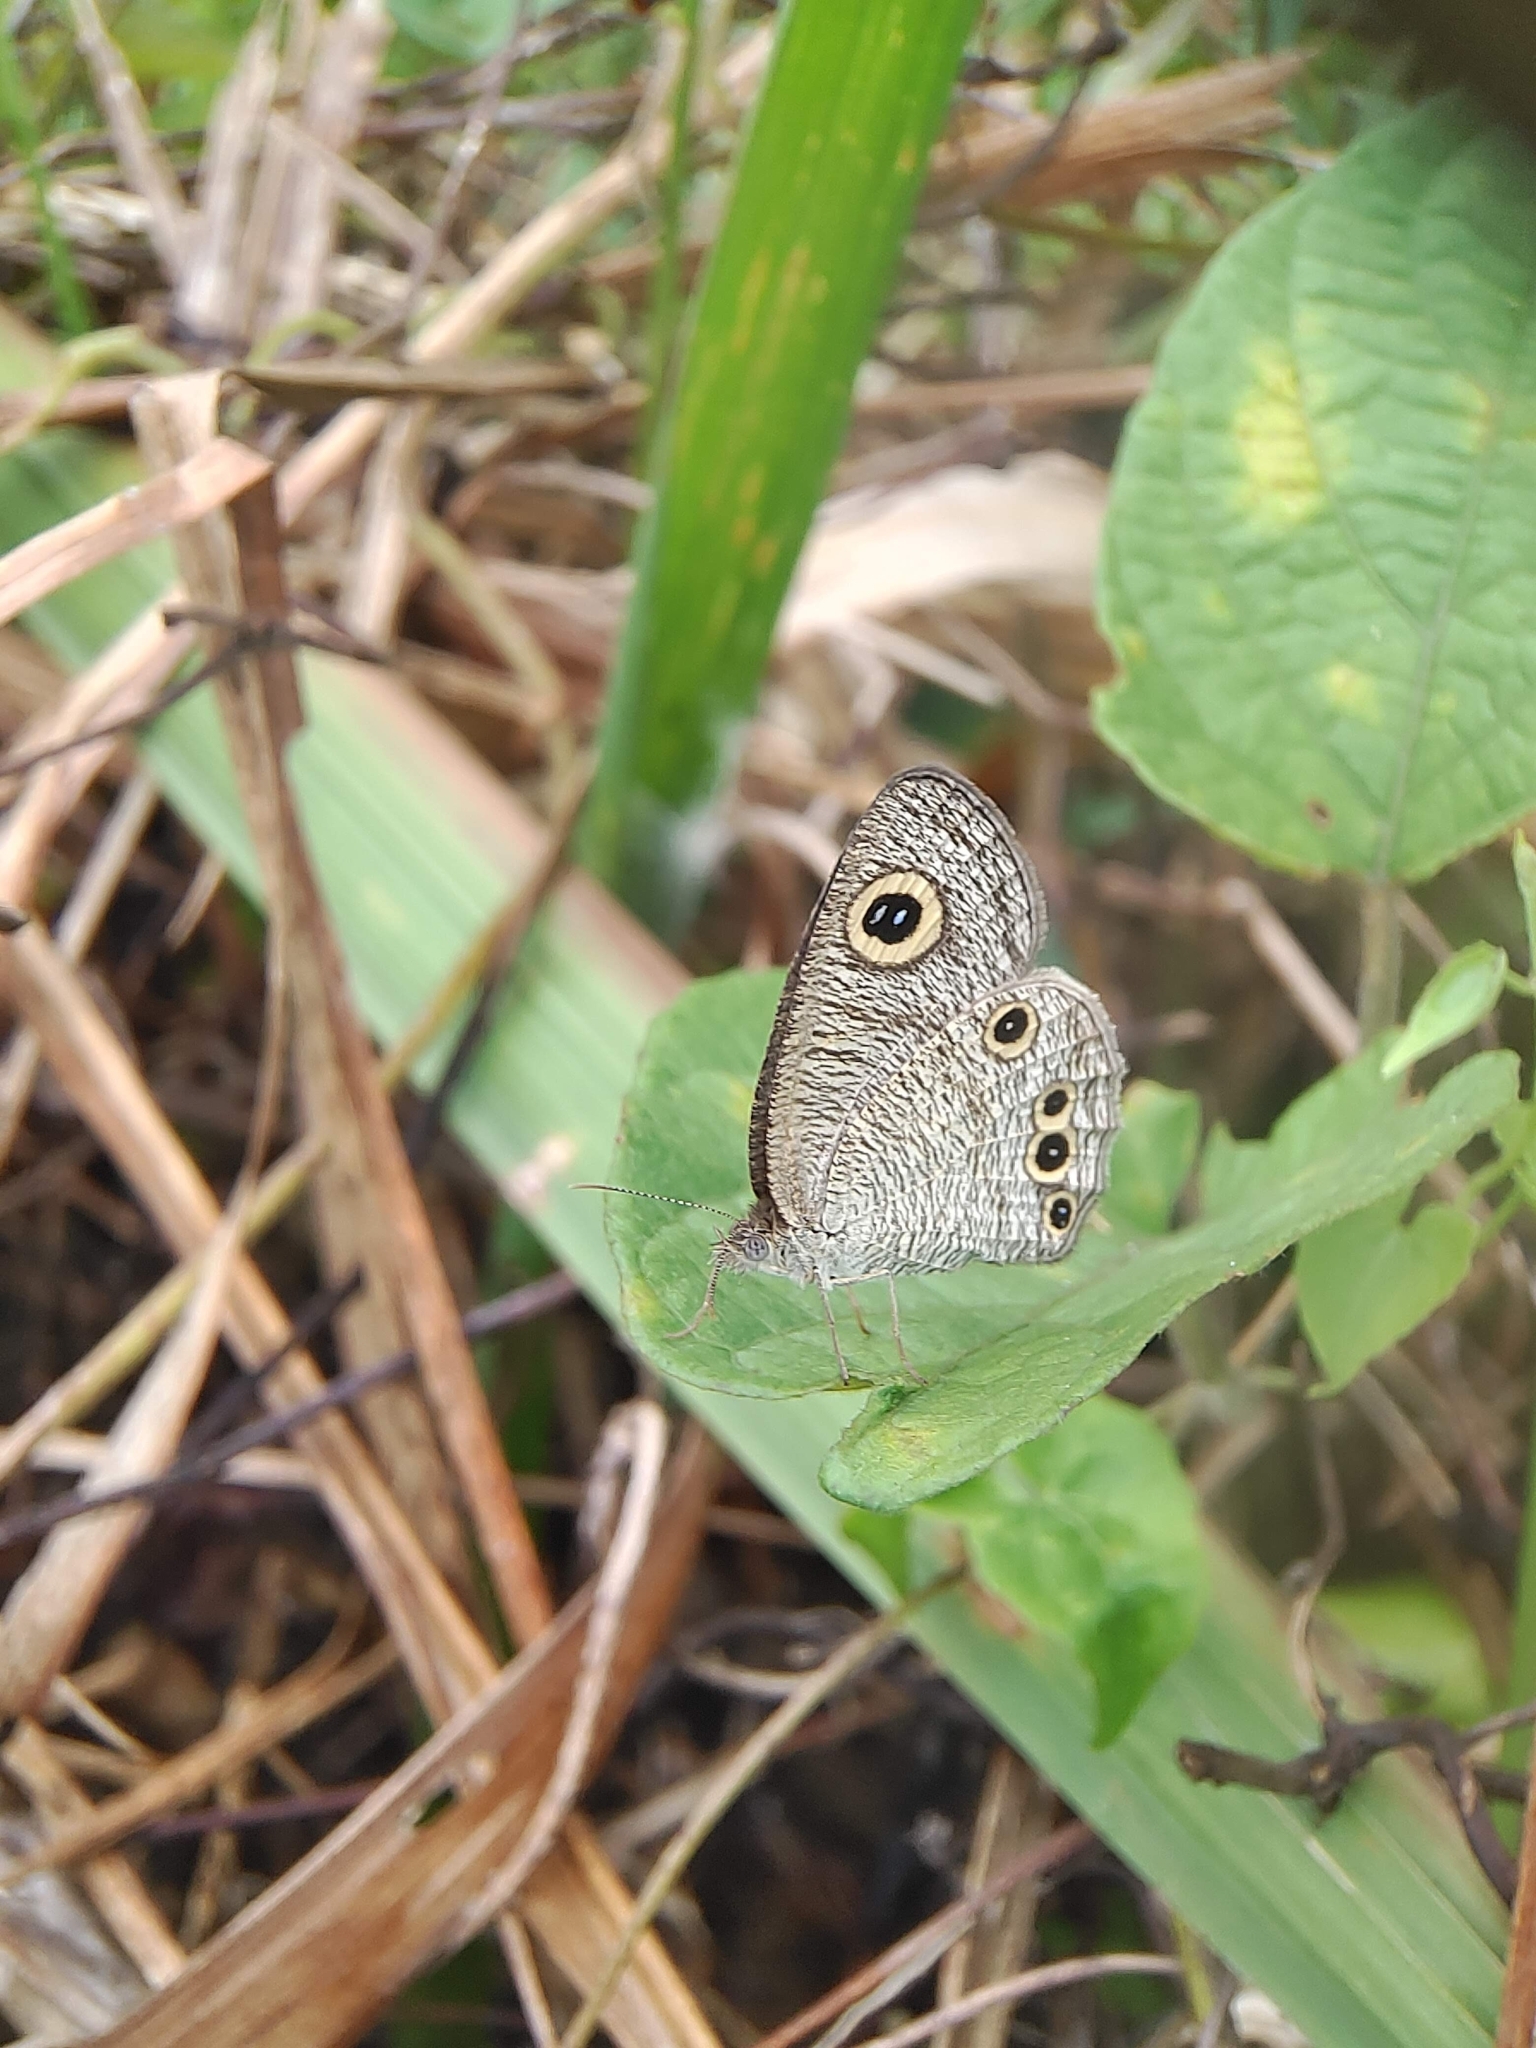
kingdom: Animalia
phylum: Arthropoda
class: Insecta
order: Lepidoptera
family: Nymphalidae
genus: Ypthima
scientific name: Ypthima huebneri
